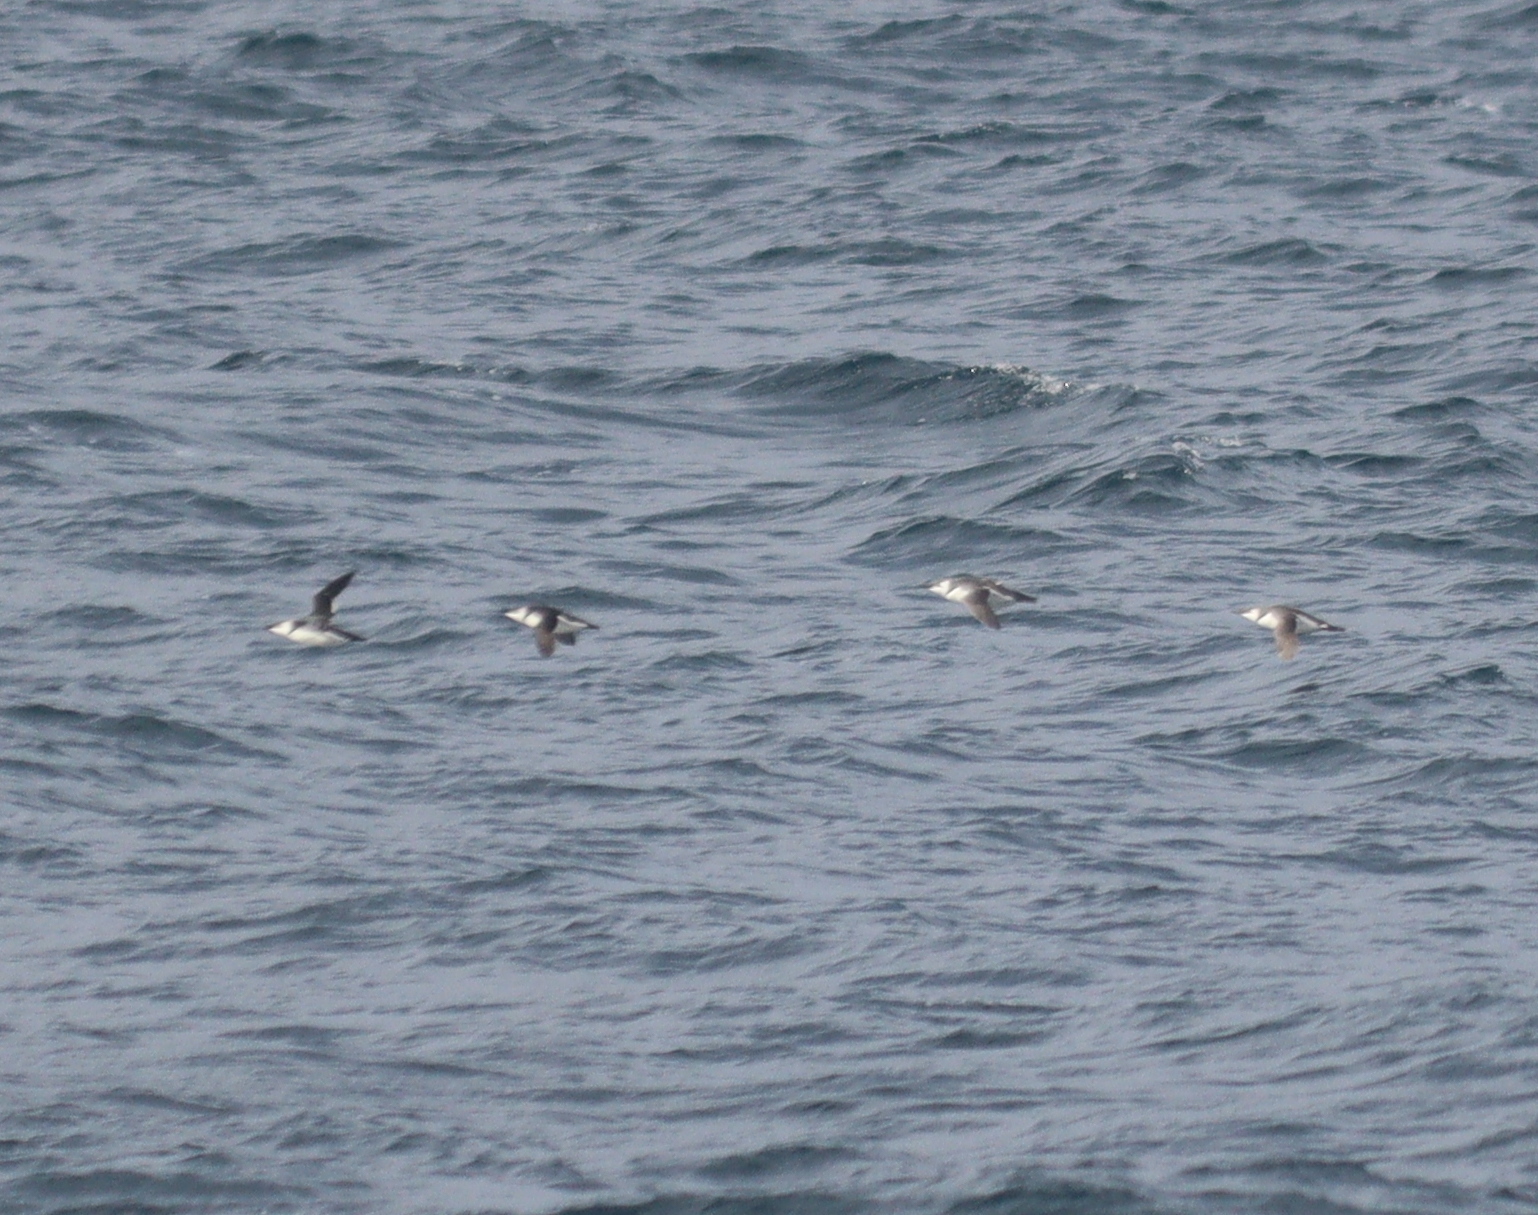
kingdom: Animalia
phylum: Chordata
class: Aves
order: Charadriiformes
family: Alcidae
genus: Uria
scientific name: Uria aalge
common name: Common murre
